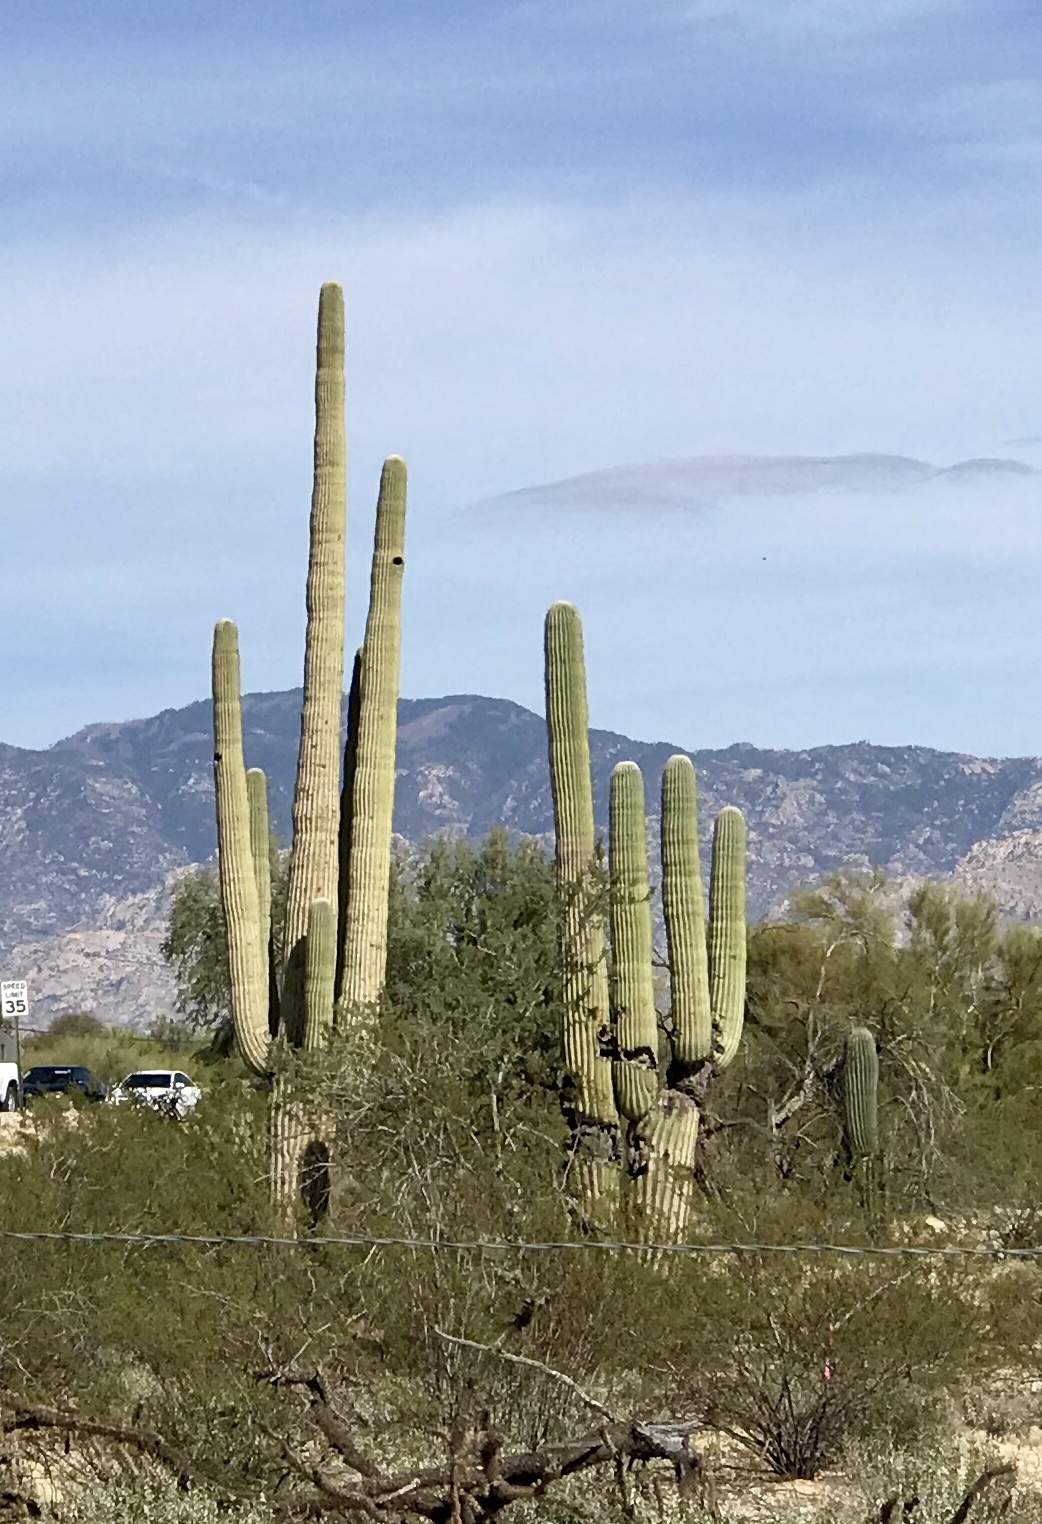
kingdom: Plantae
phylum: Tracheophyta
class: Magnoliopsida
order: Caryophyllales
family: Cactaceae
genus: Carnegiea
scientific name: Carnegiea gigantea
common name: Saguaro
